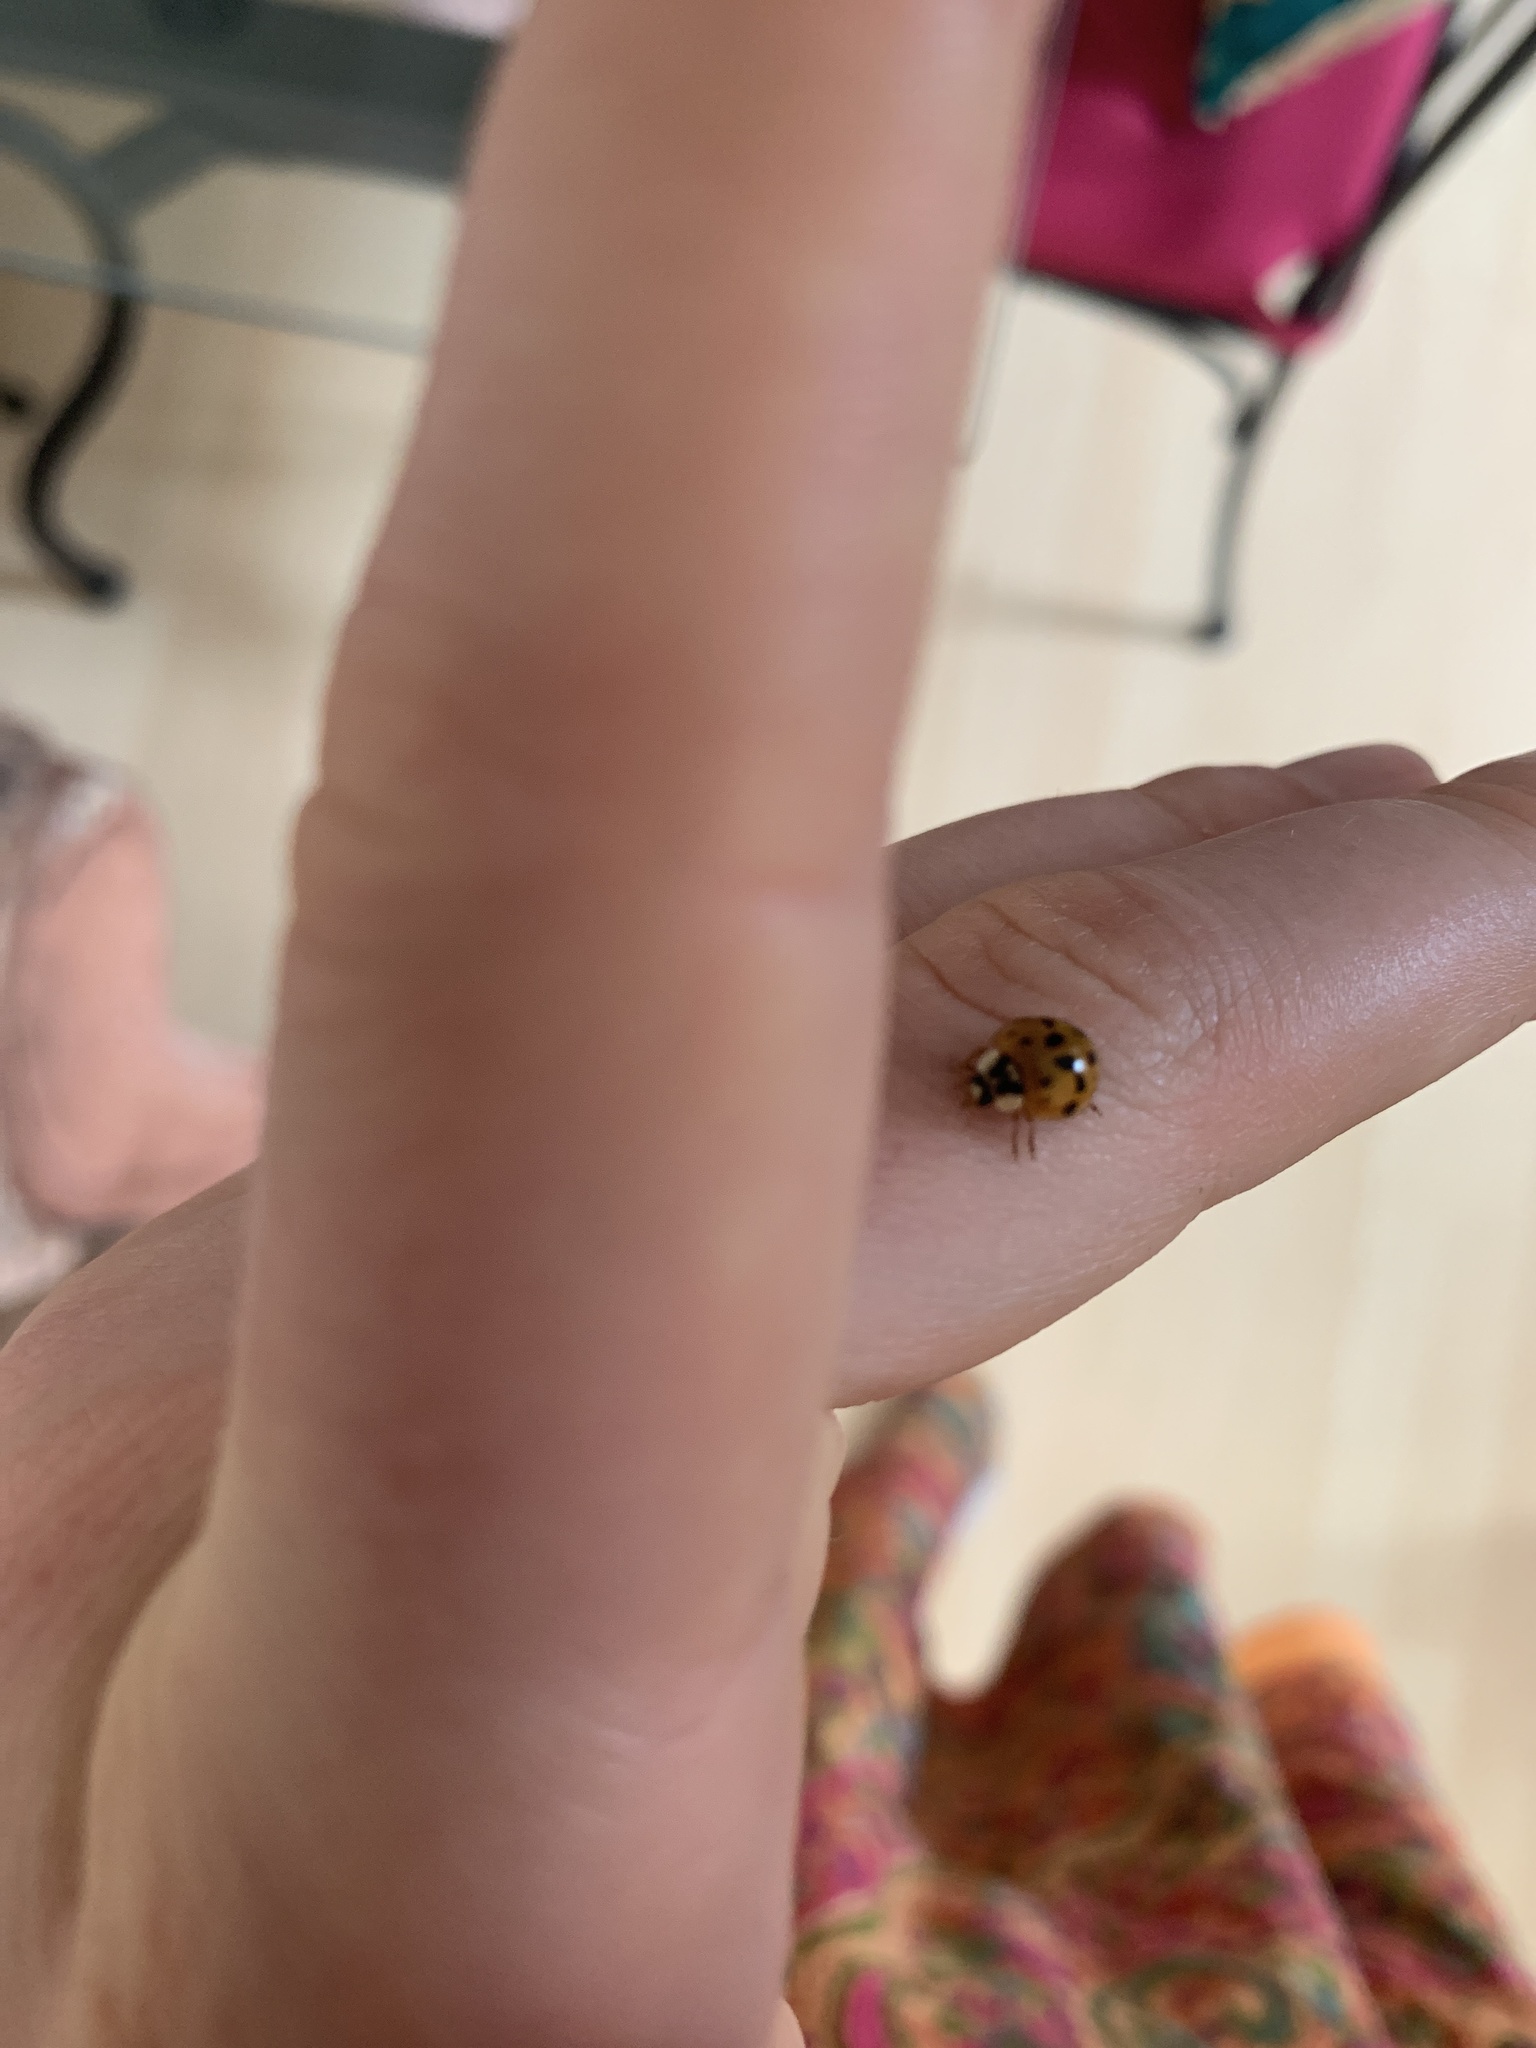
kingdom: Animalia
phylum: Arthropoda
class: Insecta
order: Coleoptera
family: Coccinellidae
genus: Harmonia
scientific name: Harmonia axyridis
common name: Harlequin ladybird
